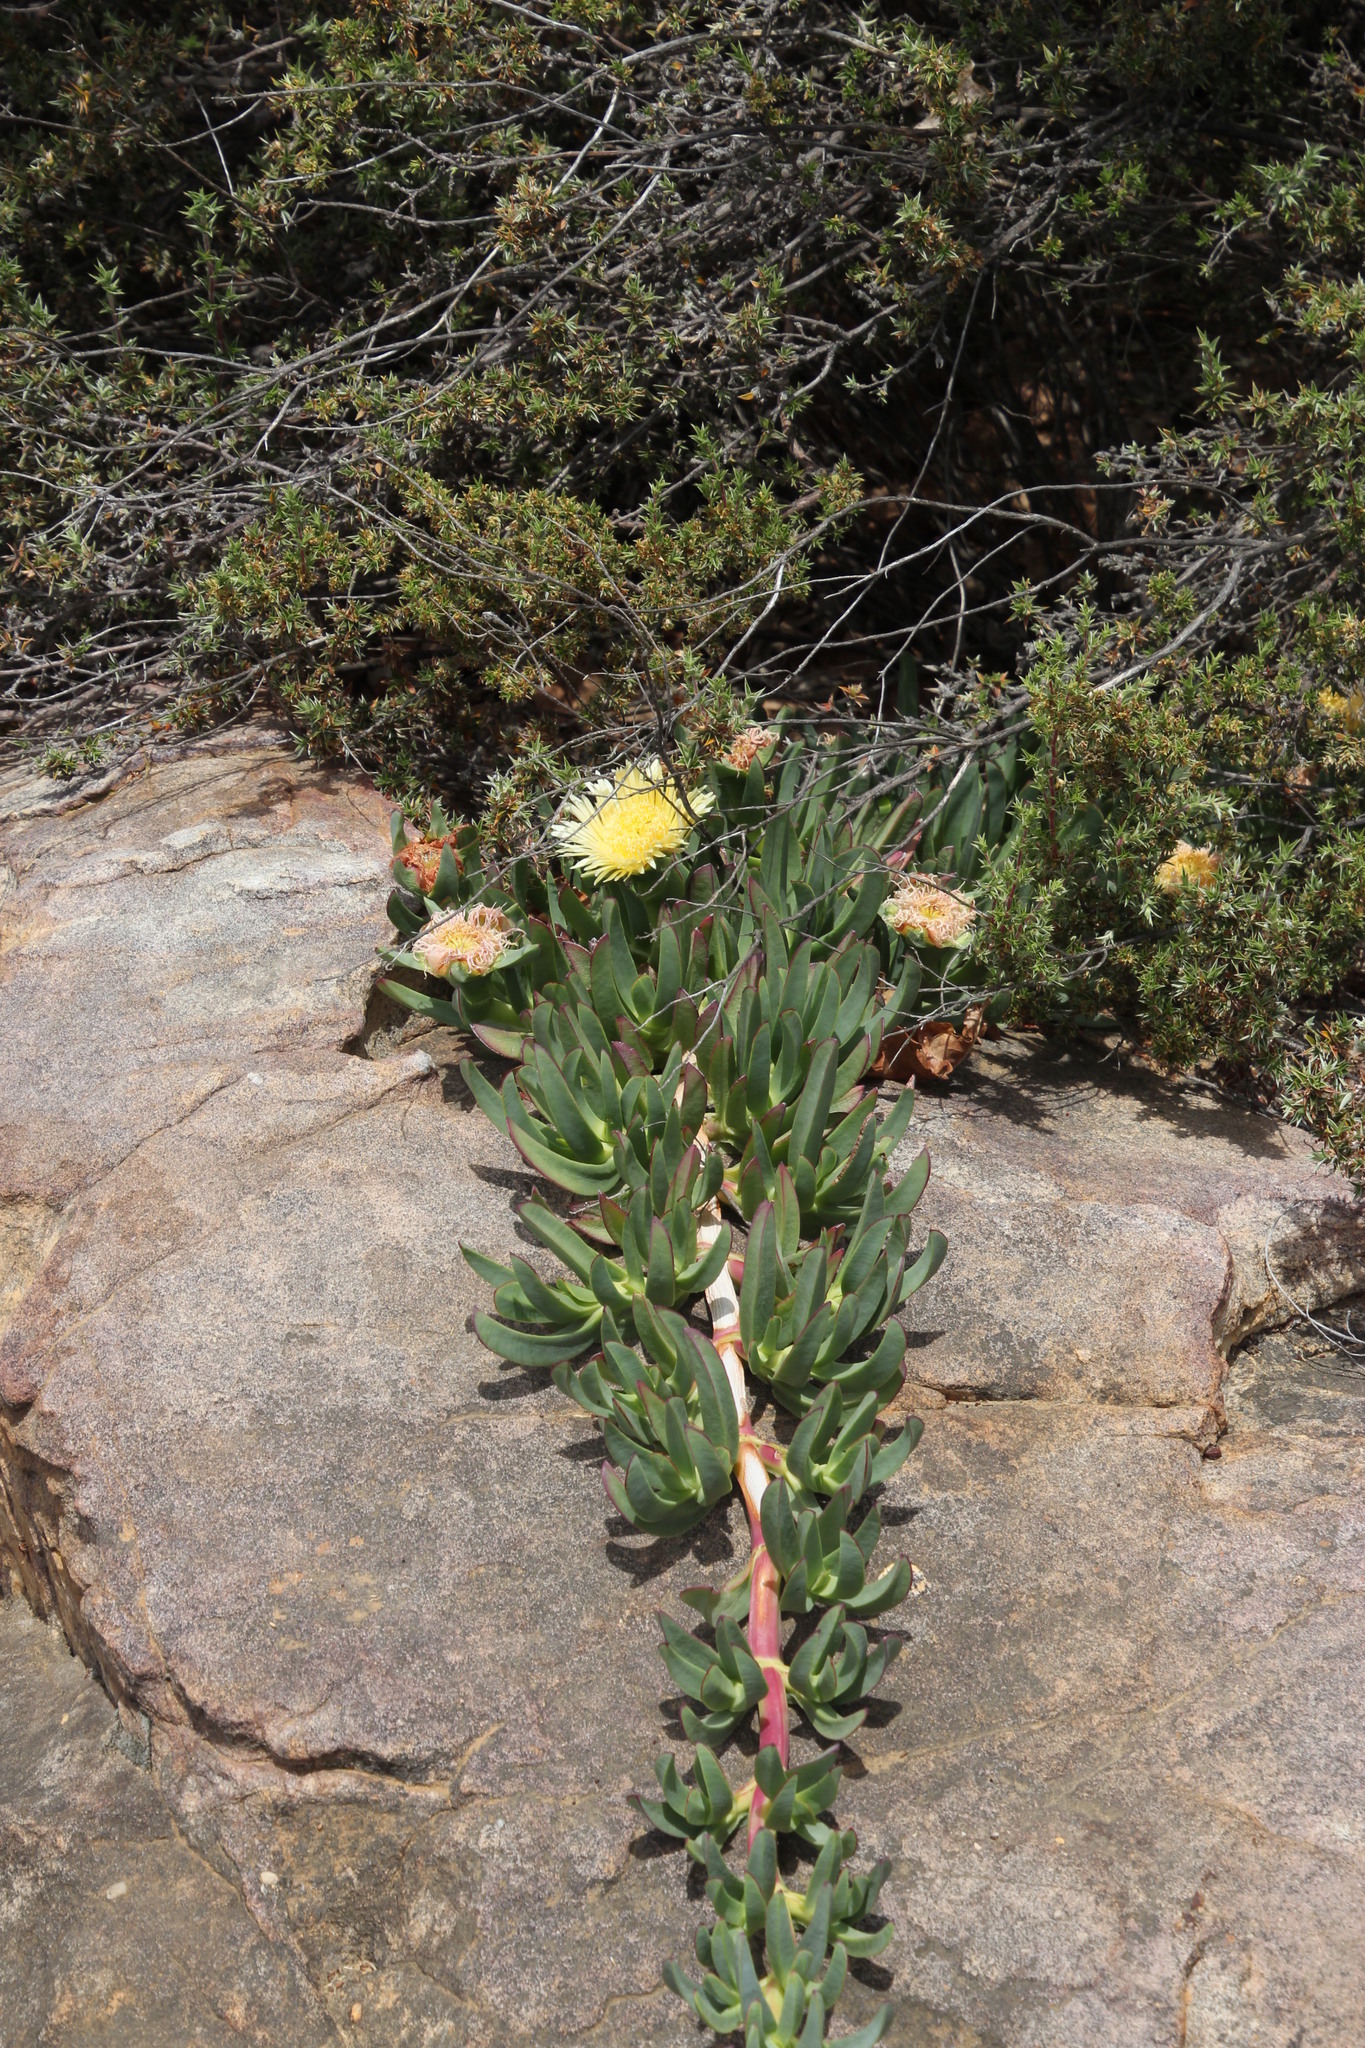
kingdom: Plantae
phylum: Tracheophyta
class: Magnoliopsida
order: Caryophyllales
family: Aizoaceae
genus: Carpobrotus
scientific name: Carpobrotus edulis
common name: Hottentot-fig
